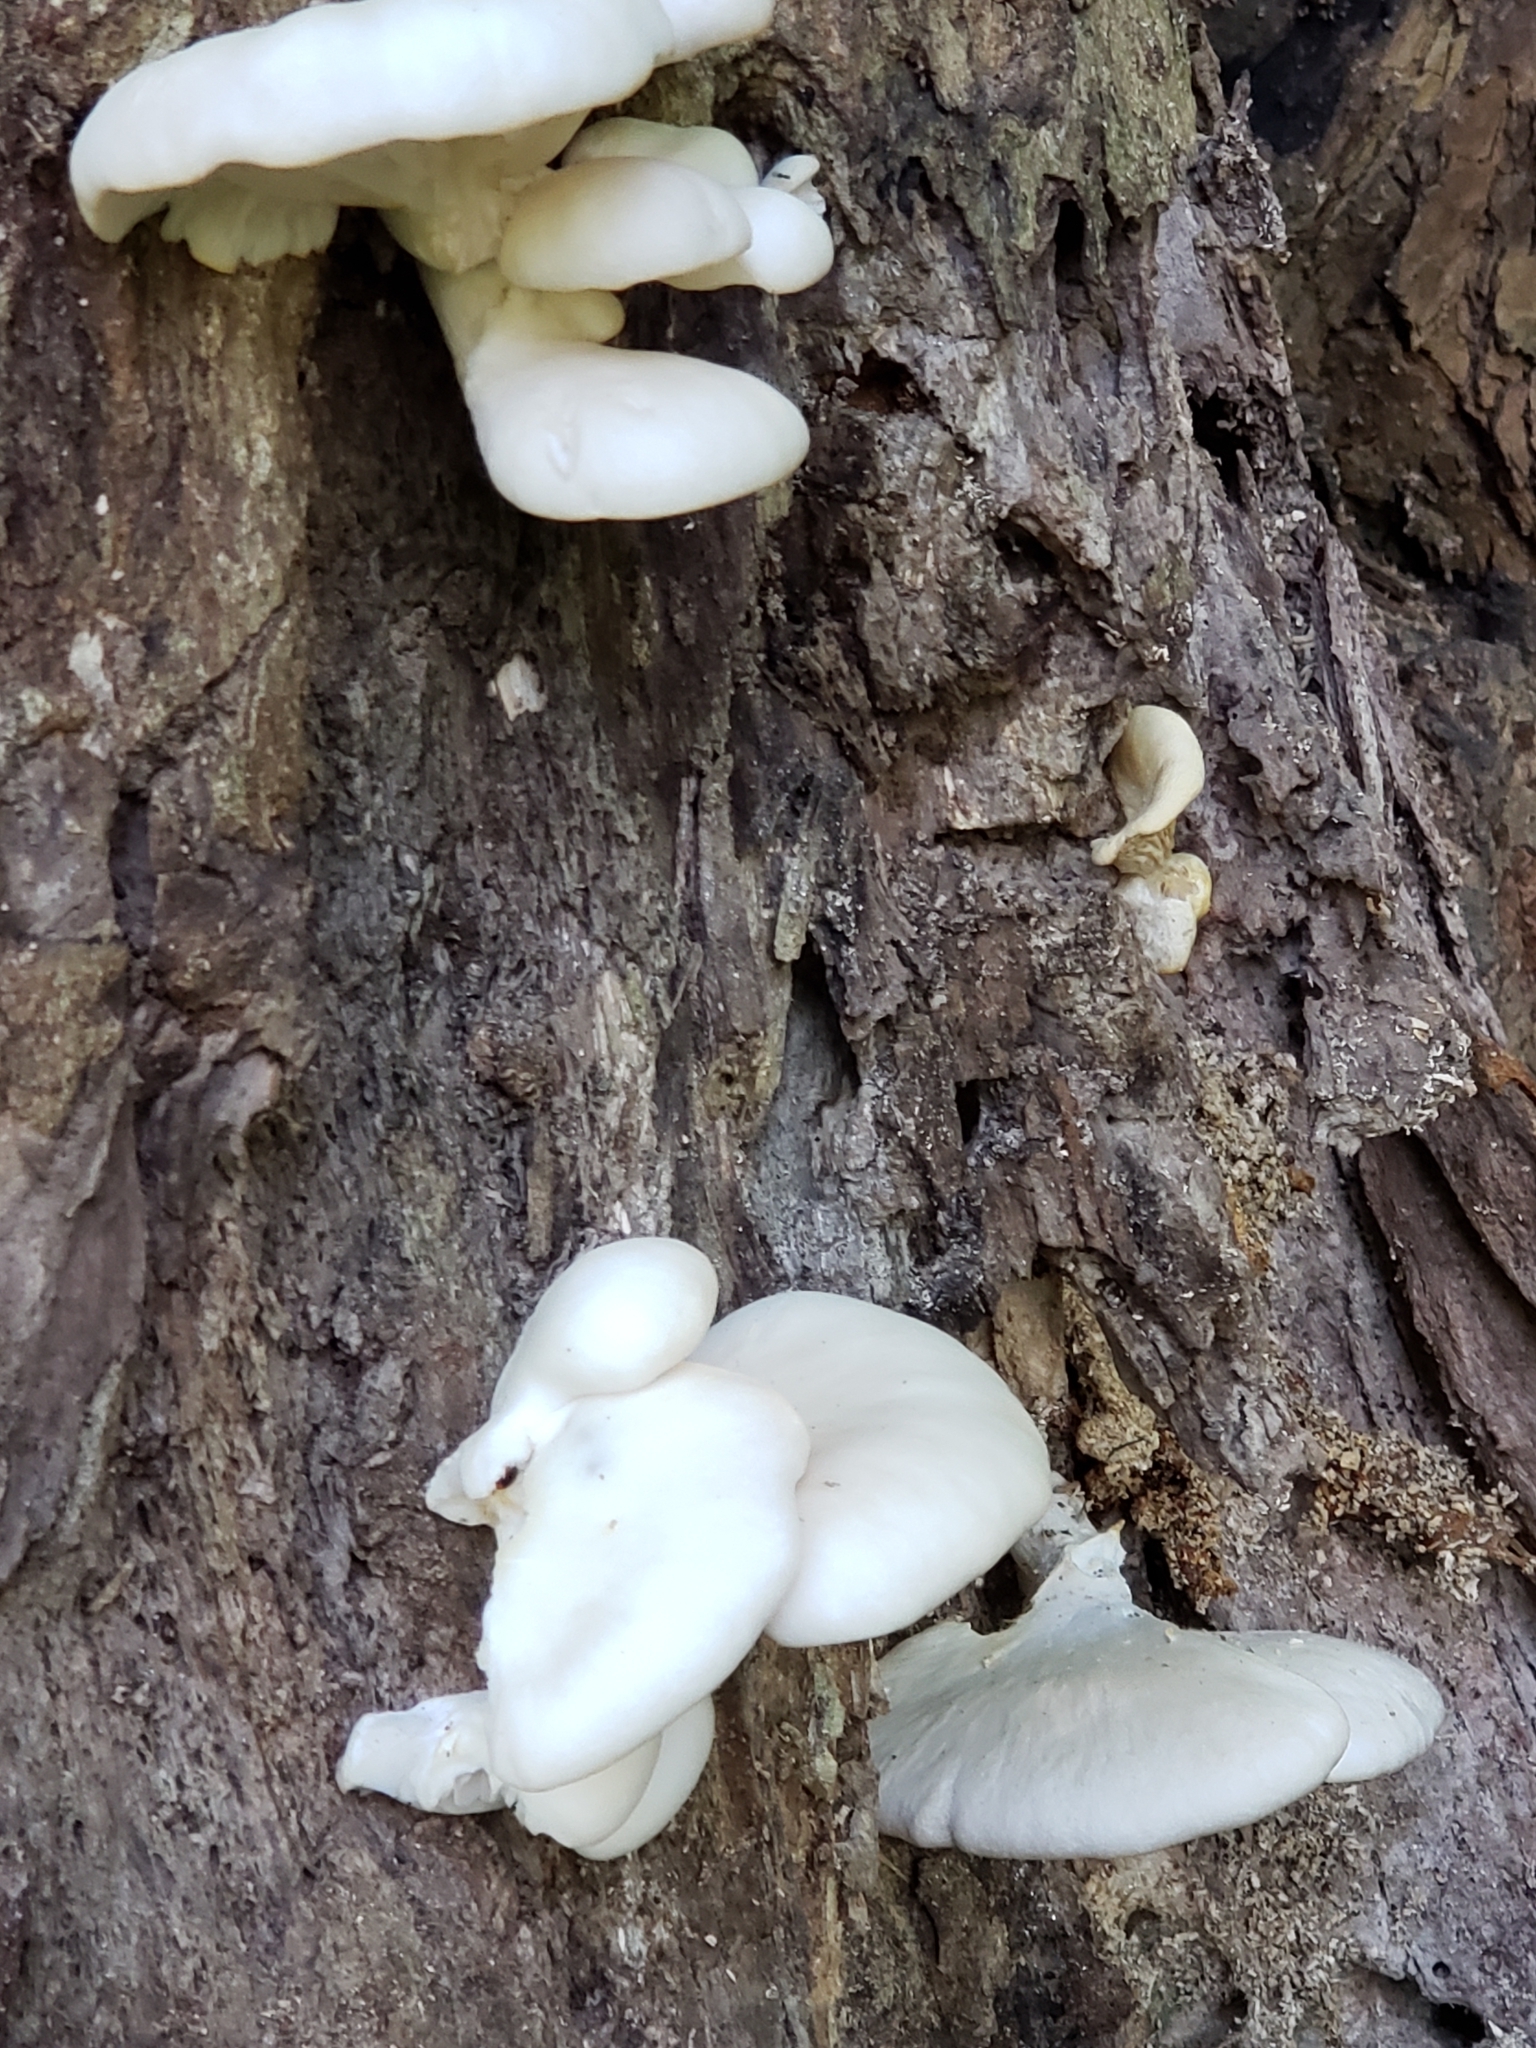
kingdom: Fungi
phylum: Basidiomycota
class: Agaricomycetes
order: Agaricales
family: Pleurotaceae
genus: Pleurotus
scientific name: Pleurotus pulmonarius
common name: Pale oyster
